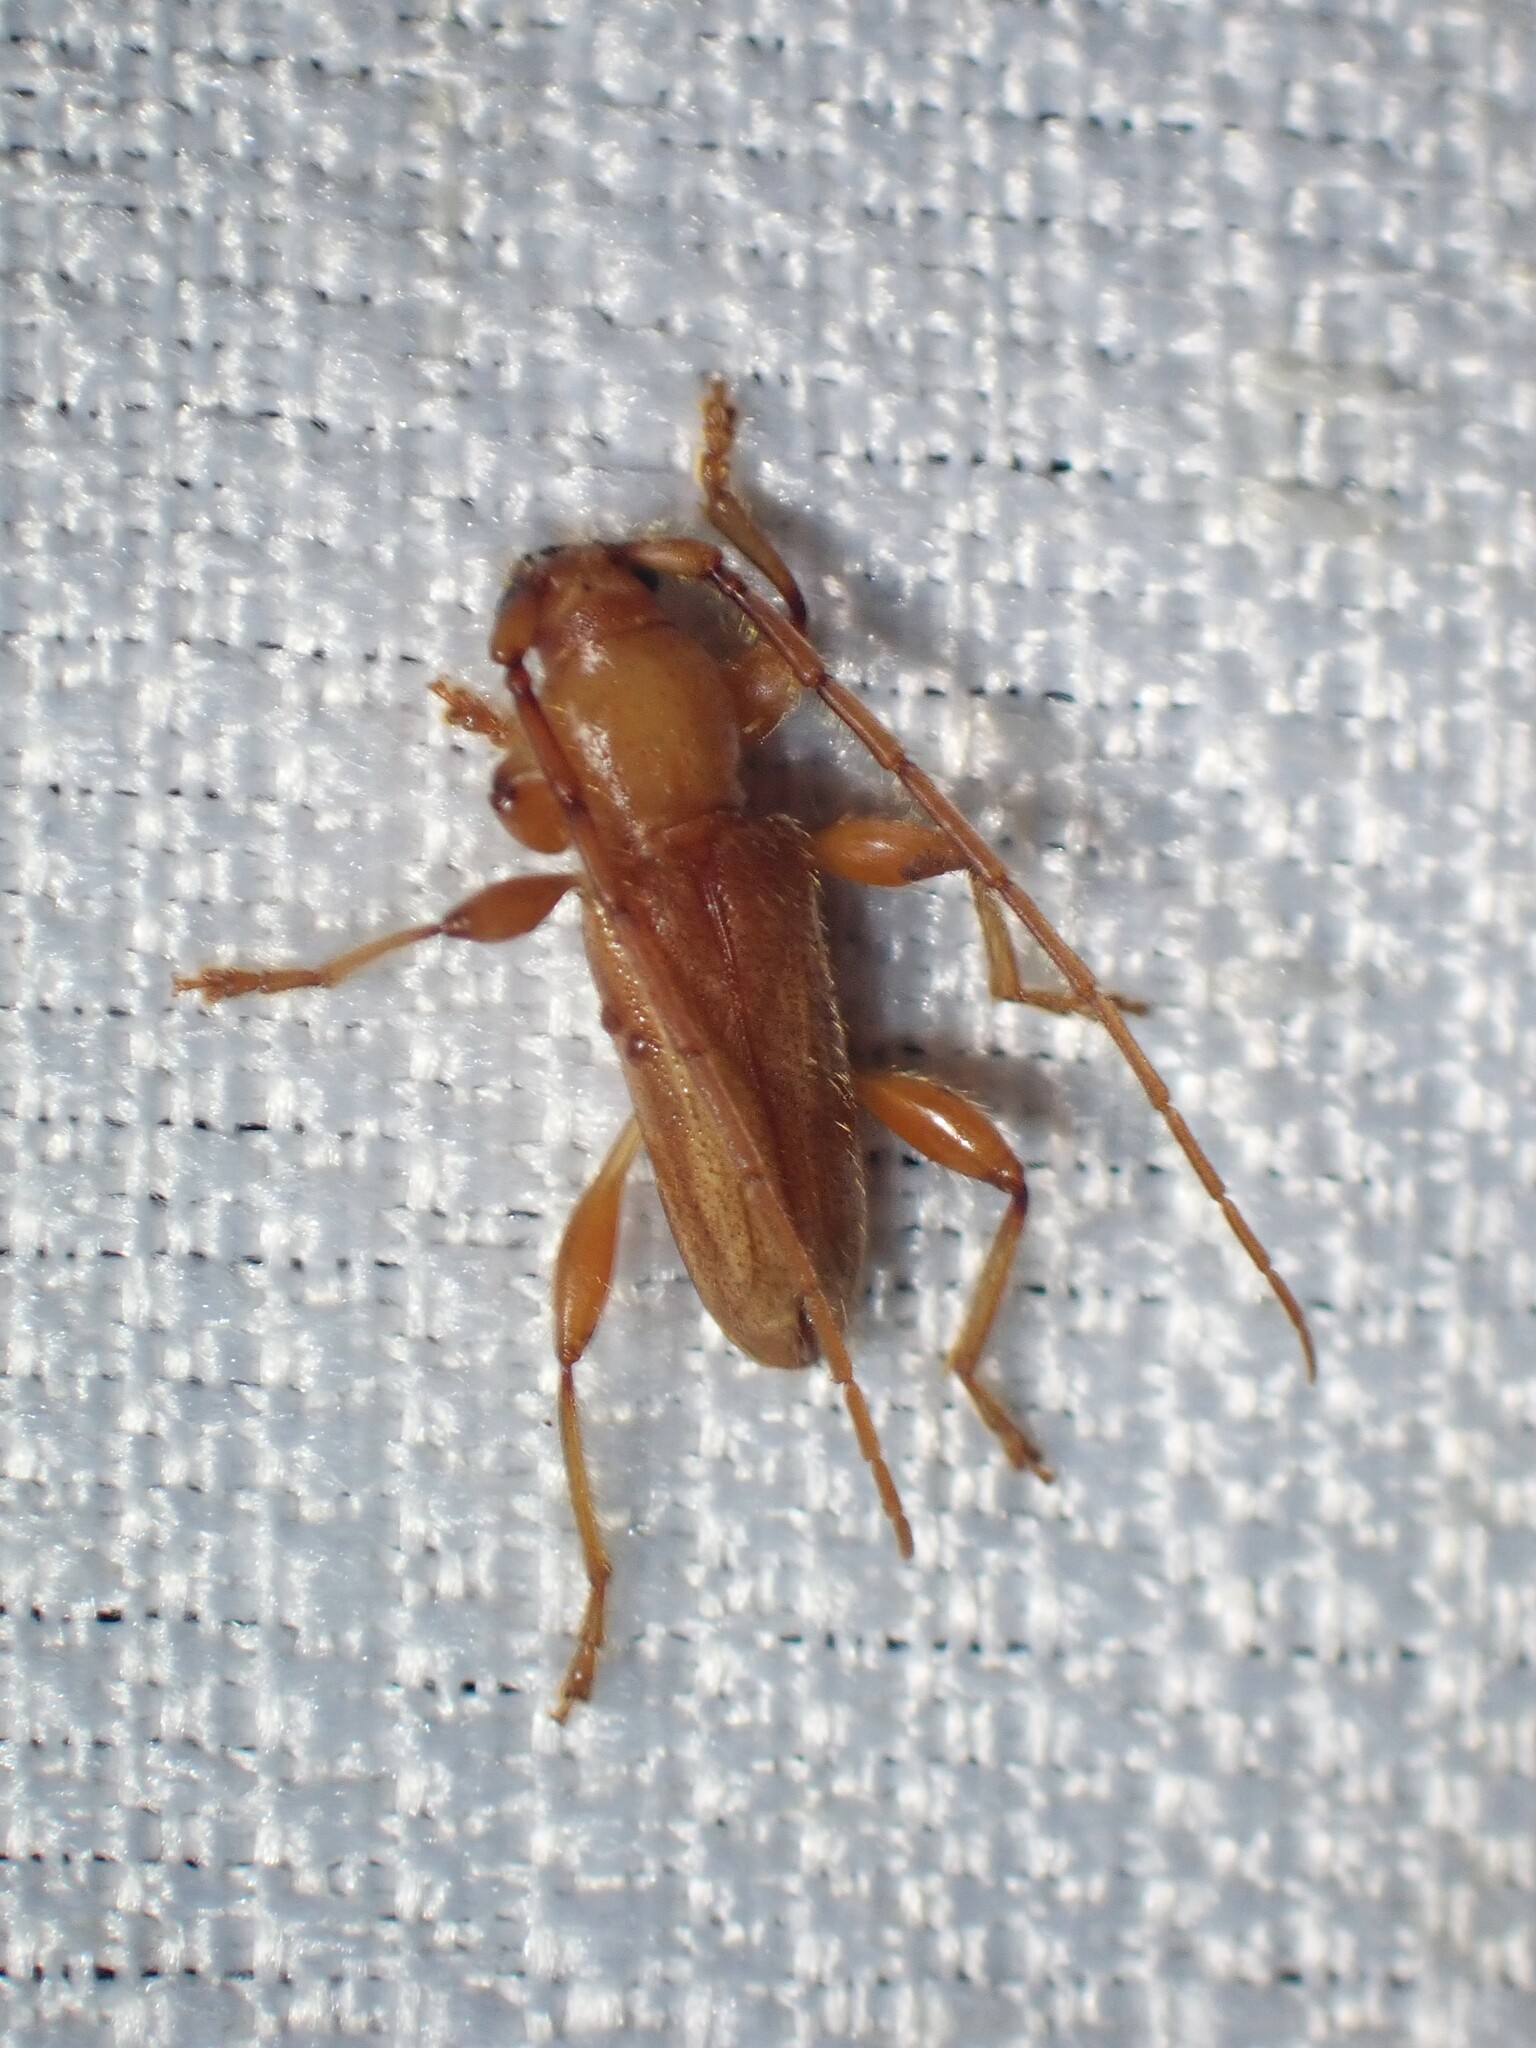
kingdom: Animalia
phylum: Arthropoda
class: Insecta
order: Coleoptera
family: Cerambycidae
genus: Curtomerus
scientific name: Curtomerus flavus
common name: Curtomerus long-horned beetle
